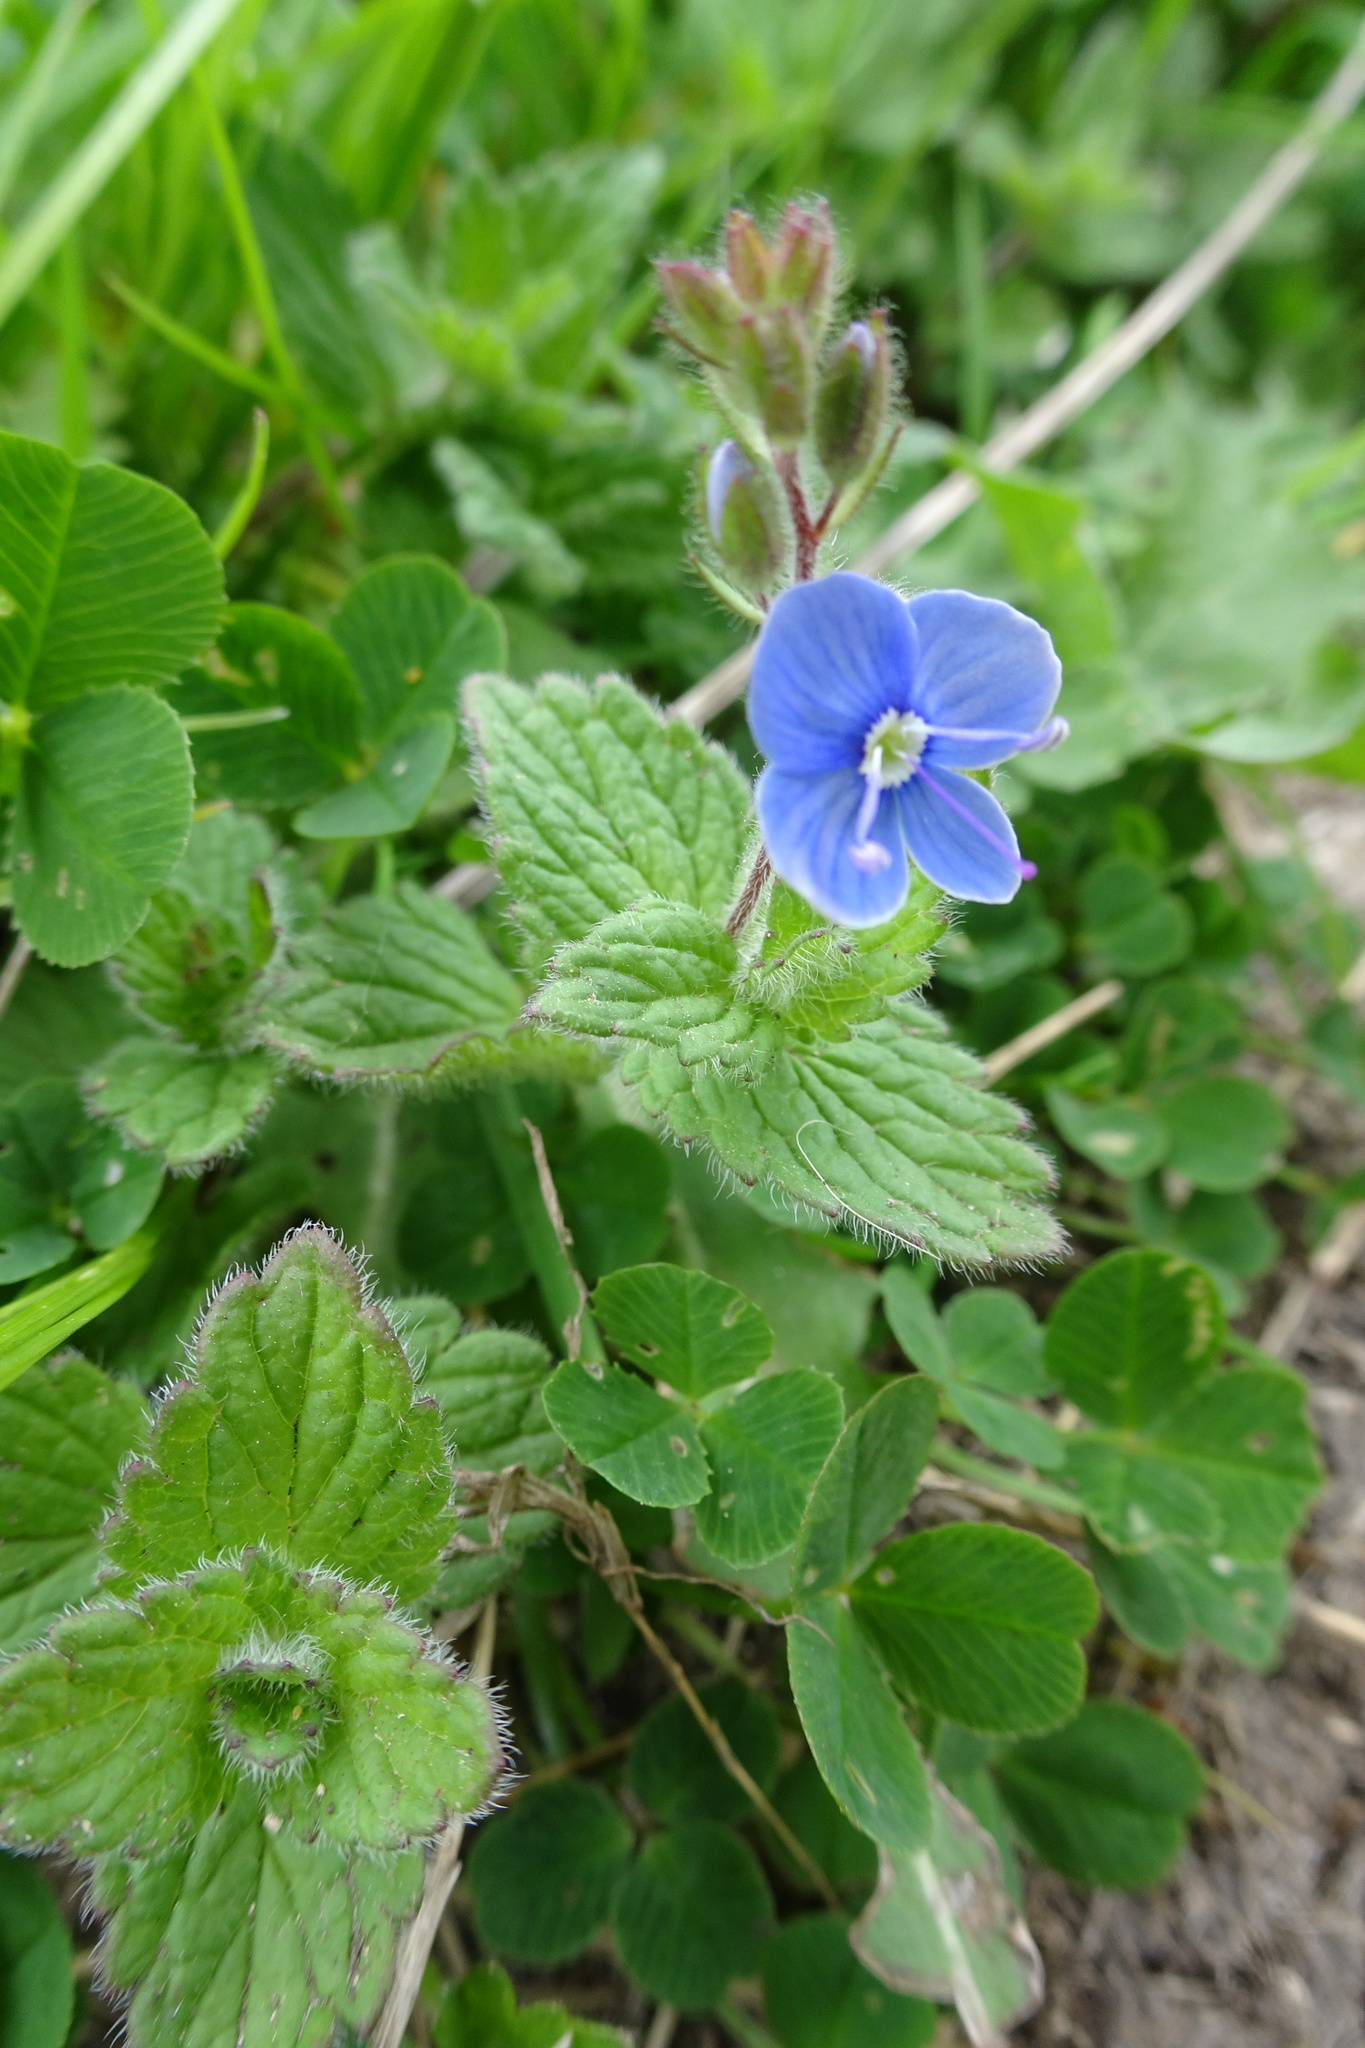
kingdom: Plantae
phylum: Tracheophyta
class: Magnoliopsida
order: Lamiales
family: Plantaginaceae
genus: Veronica
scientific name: Veronica chamaedrys
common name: Germander speedwell
